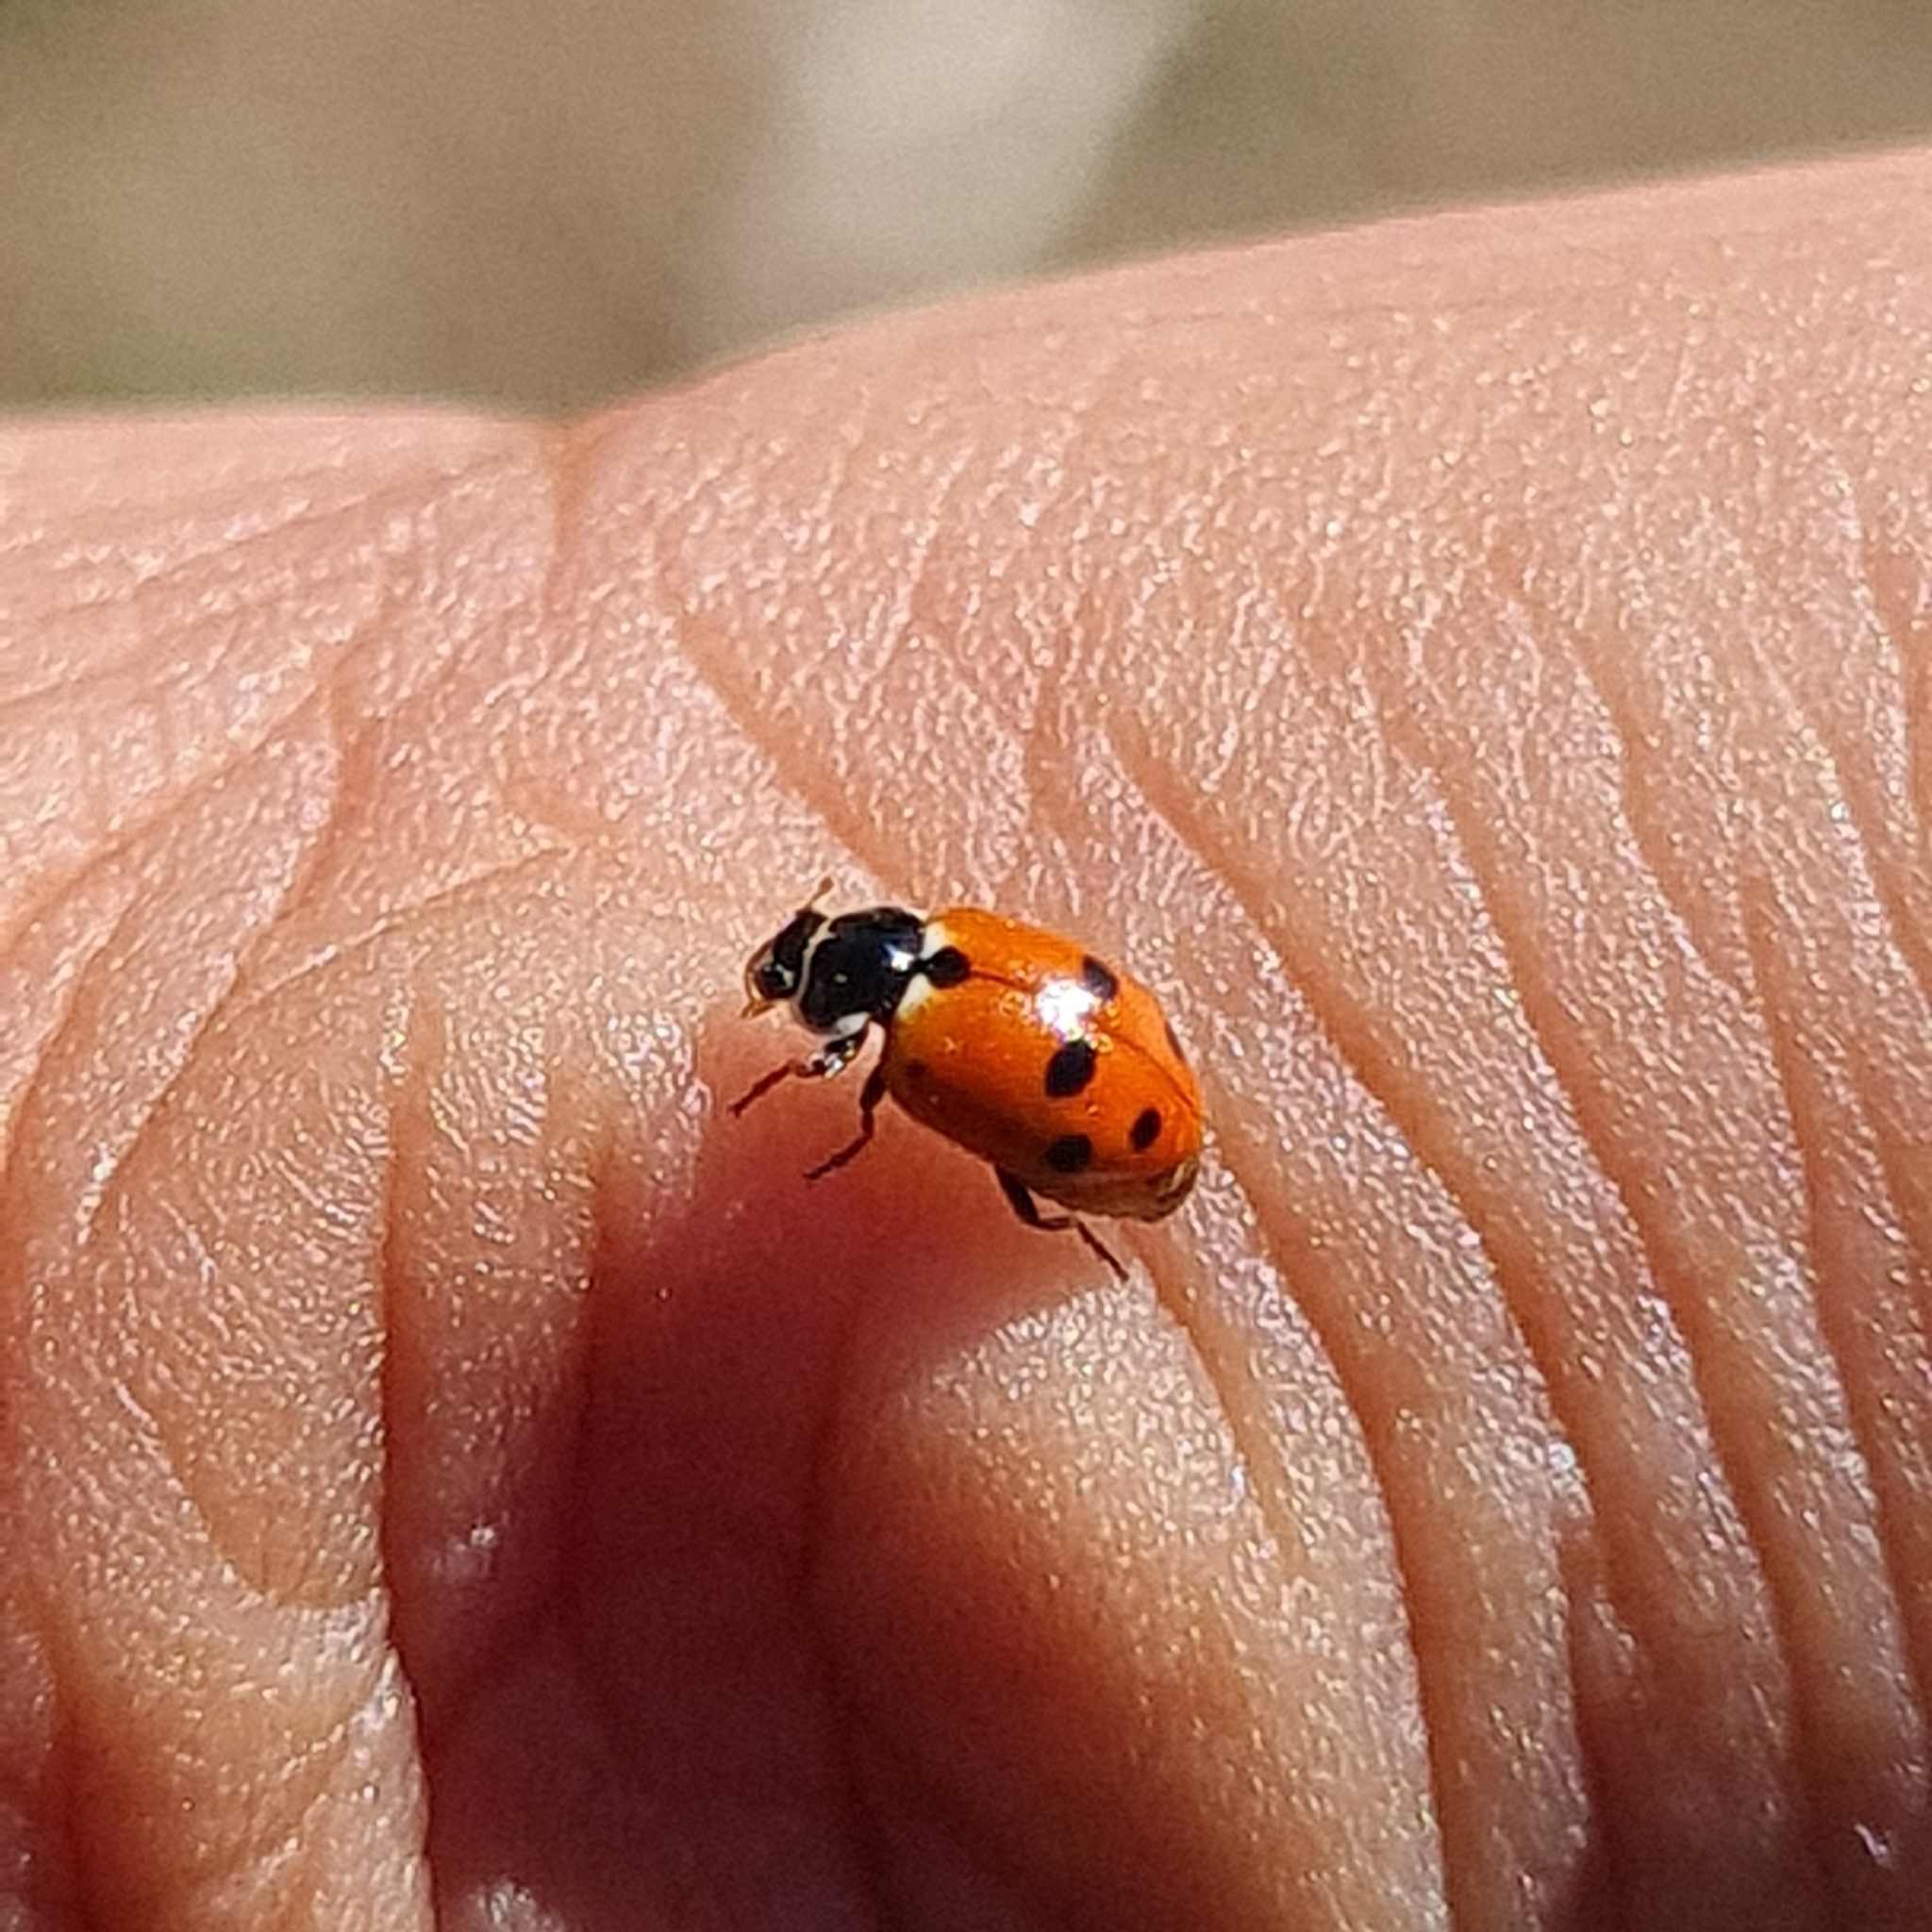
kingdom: Animalia
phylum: Arthropoda
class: Insecta
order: Coleoptera
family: Coccinellidae
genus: Hippodamia
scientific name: Hippodamia variegata
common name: Ladybird beetle
